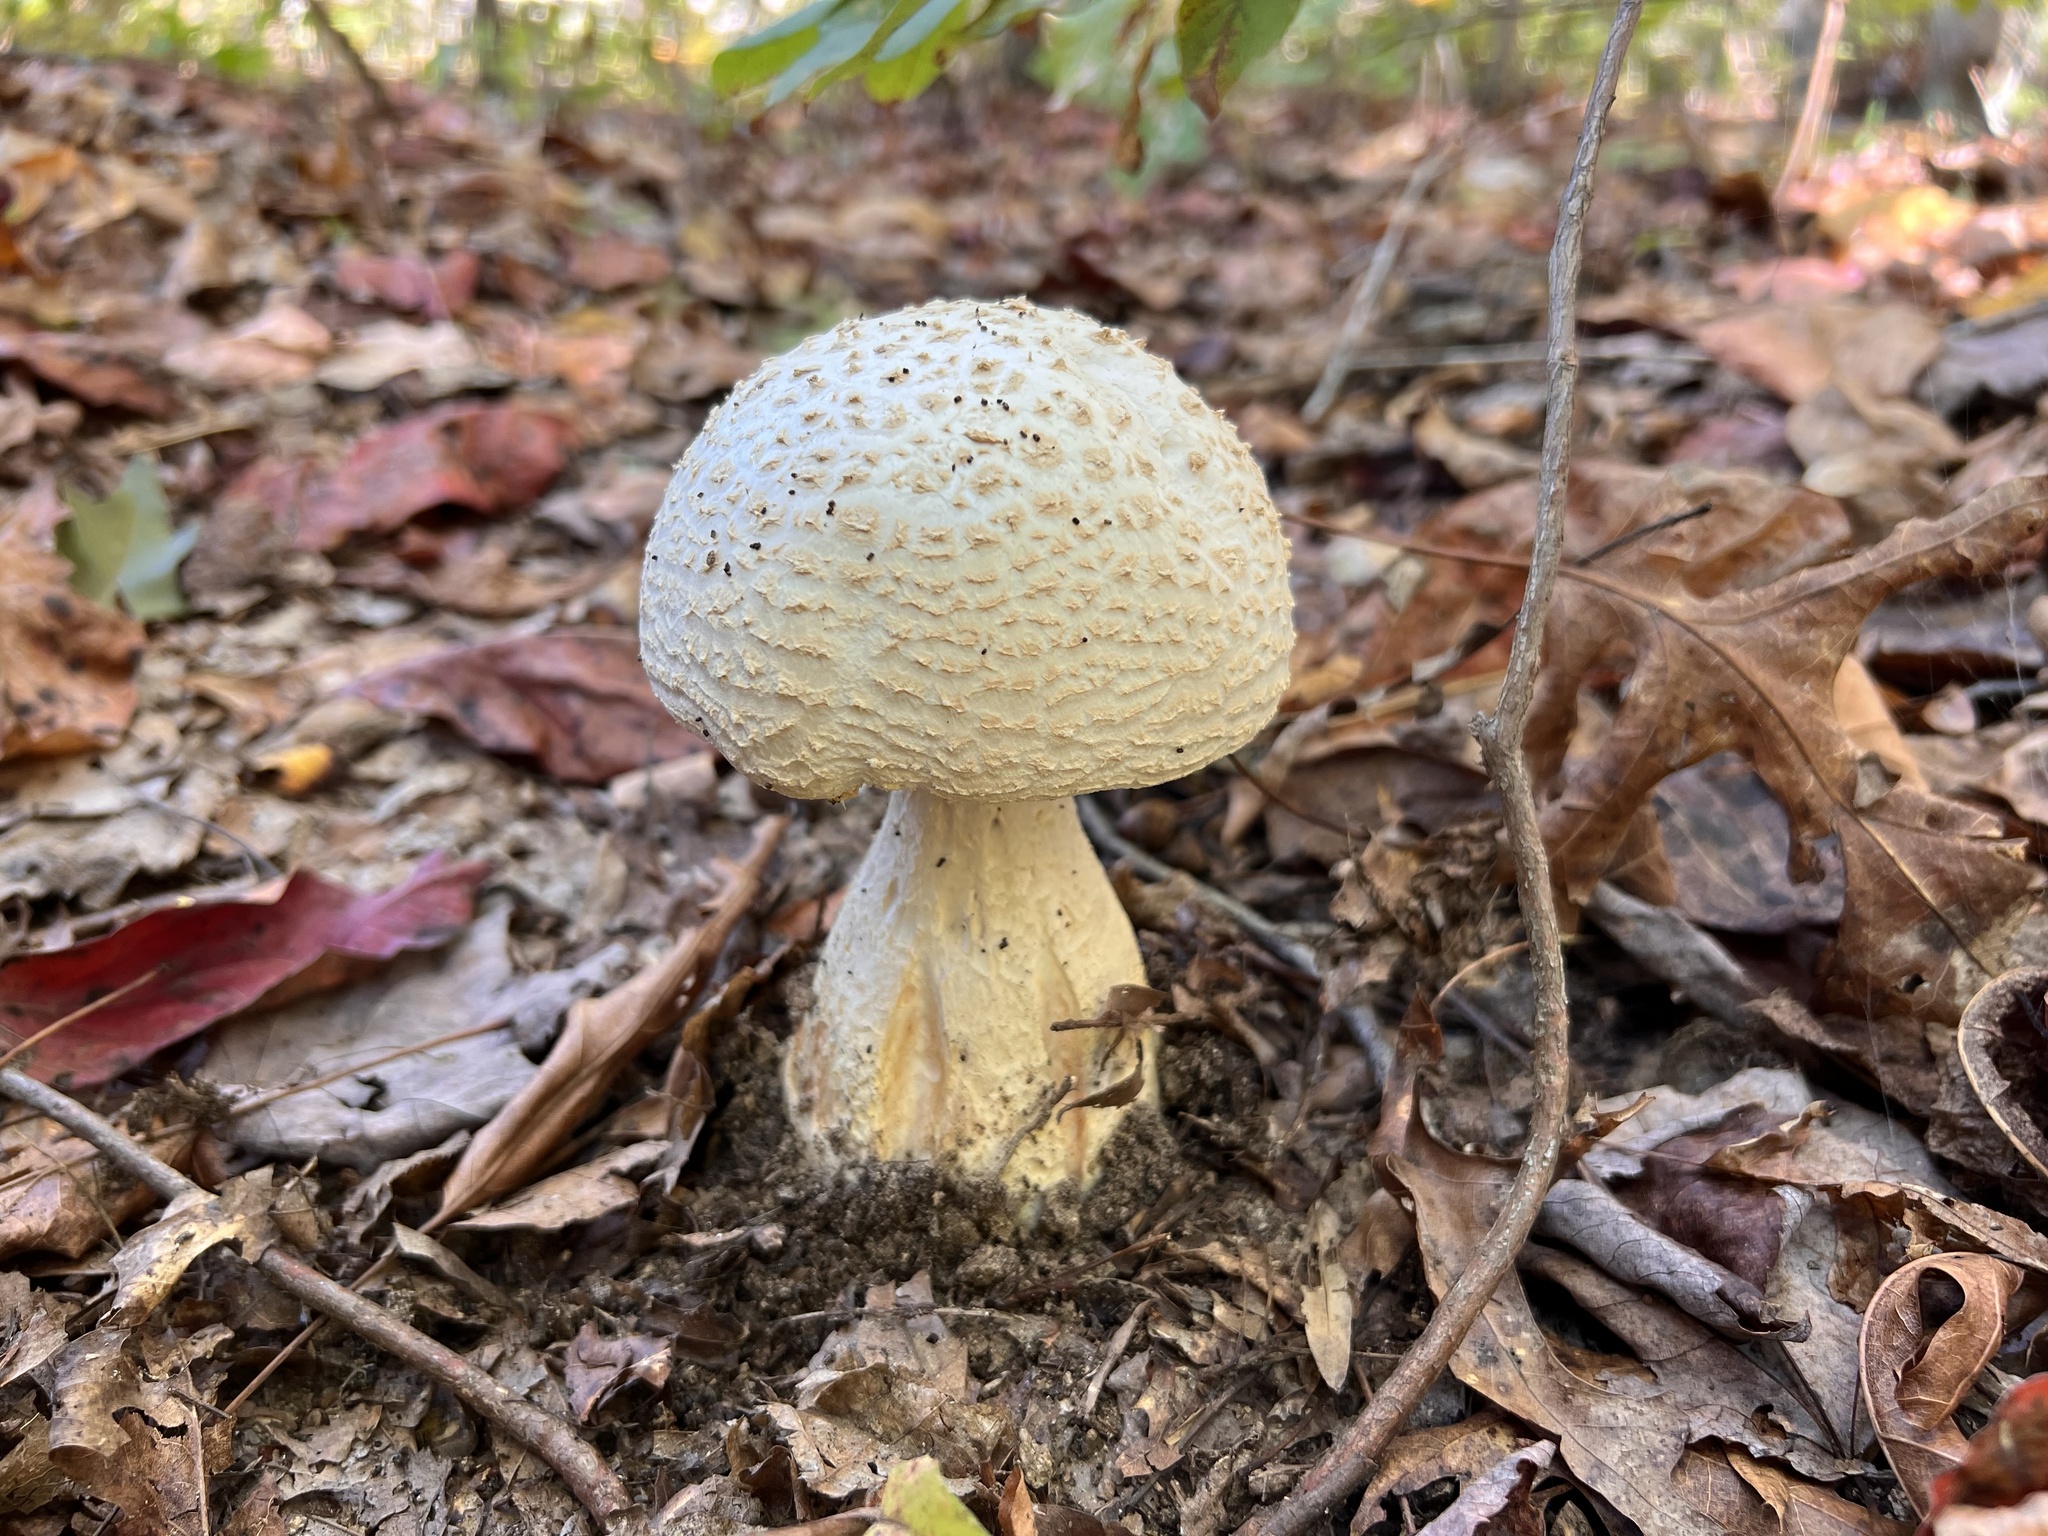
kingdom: Fungi
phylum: Basidiomycota
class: Agaricomycetes
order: Agaricales
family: Amanitaceae
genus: Amanita
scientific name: Amanita daucipes
